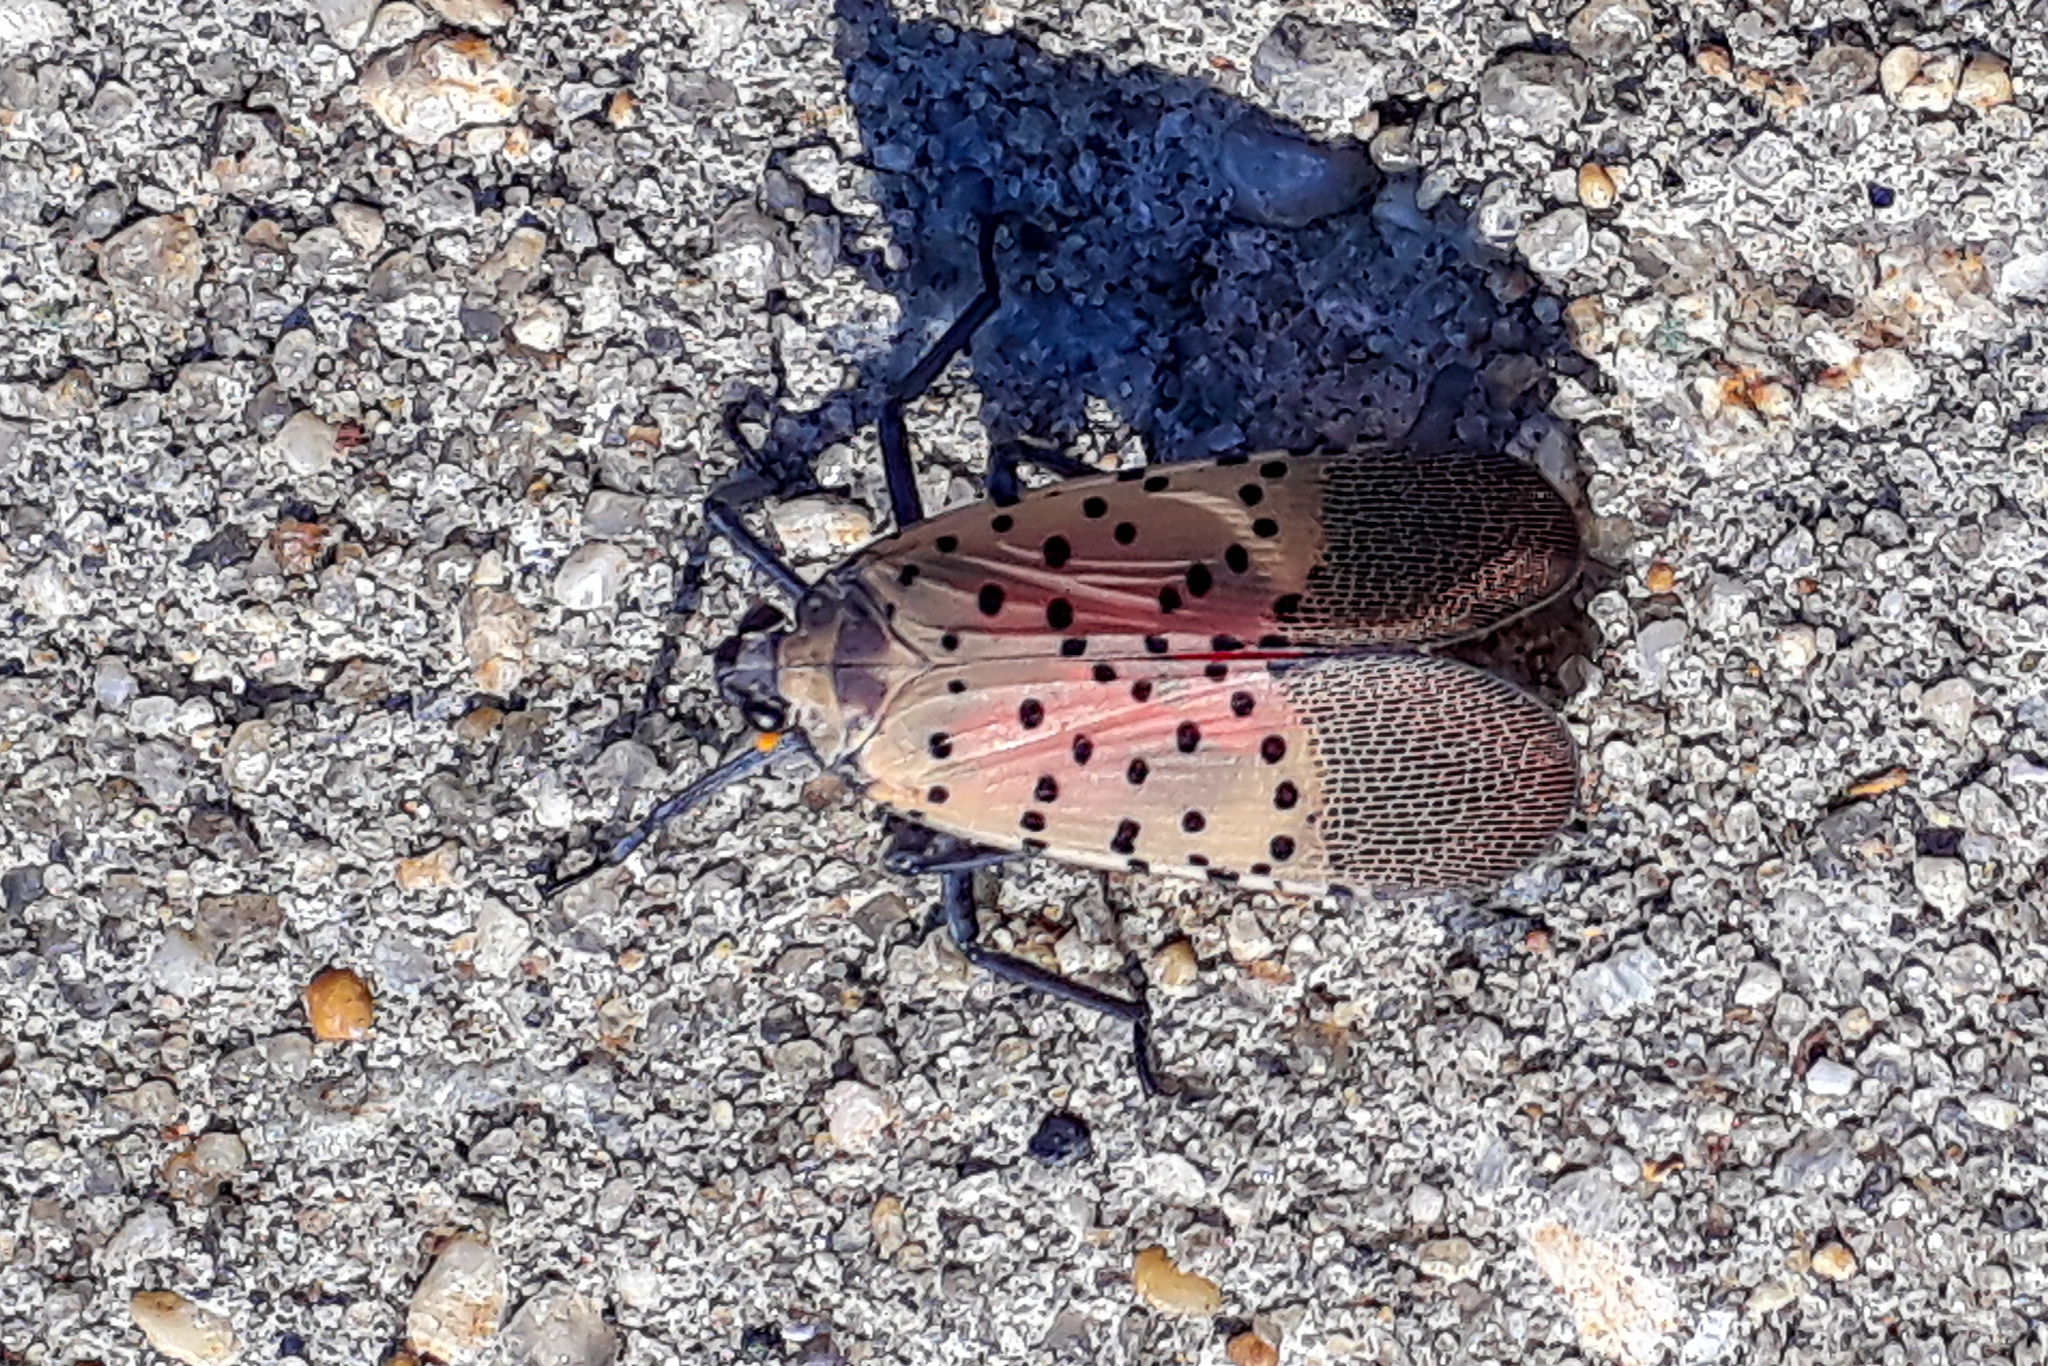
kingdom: Animalia
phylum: Arthropoda
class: Insecta
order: Hemiptera
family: Fulgoridae
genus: Lycorma
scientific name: Lycorma delicatula
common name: Spotted lanternfly
